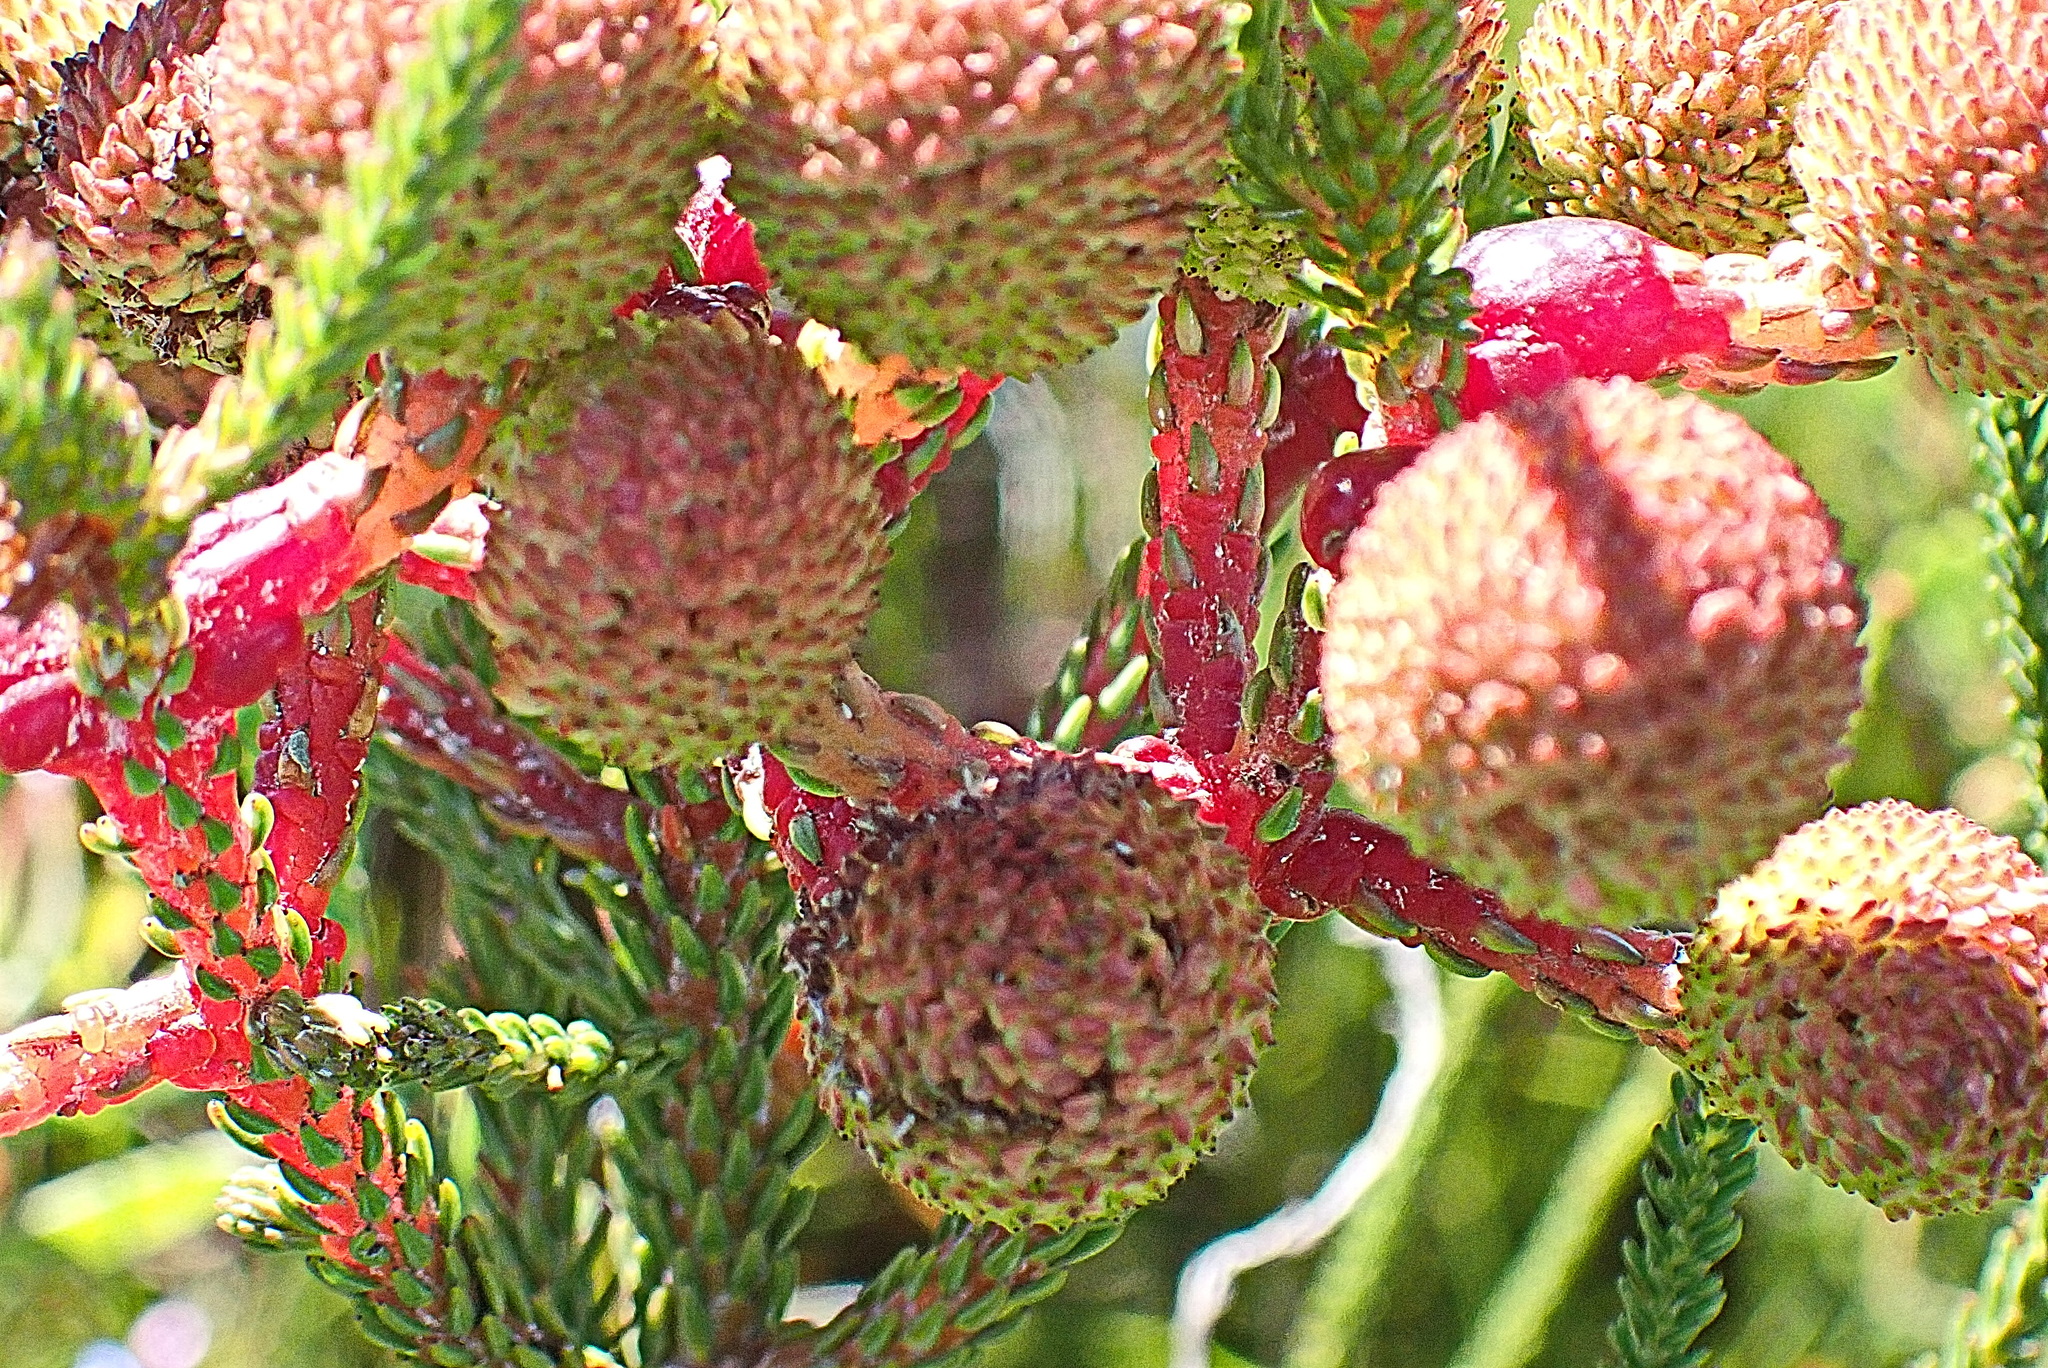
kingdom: Plantae
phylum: Tracheophyta
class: Magnoliopsida
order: Bruniales
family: Bruniaceae
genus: Berzelia
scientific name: Berzelia intermedia
